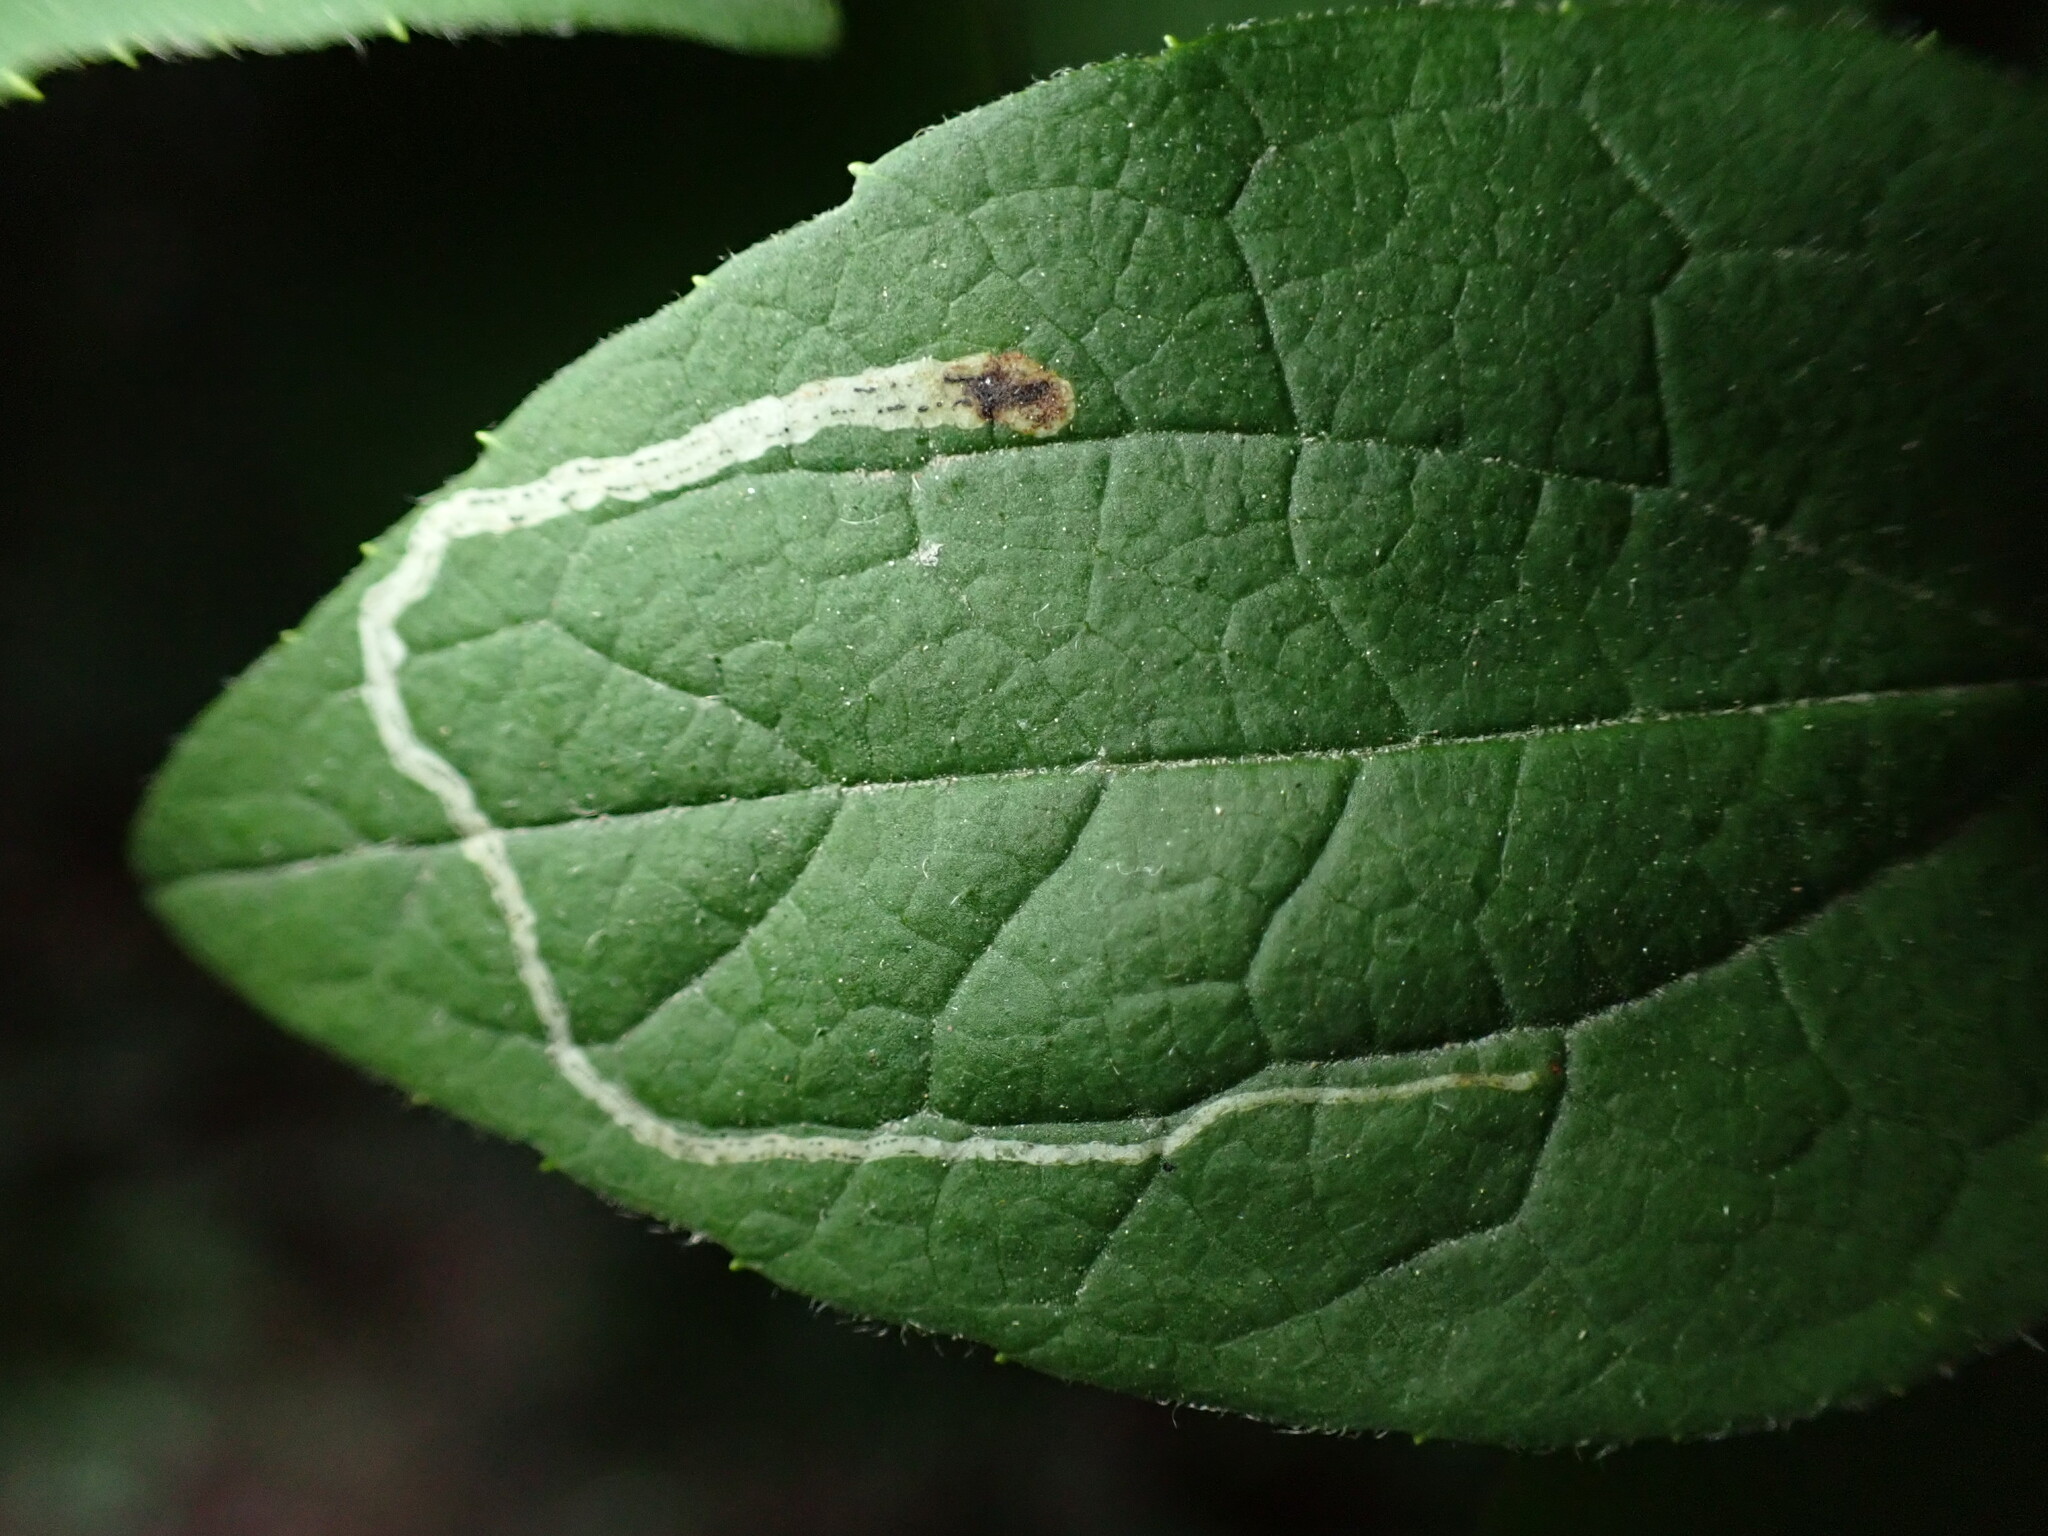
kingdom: Animalia
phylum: Arthropoda
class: Insecta
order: Diptera
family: Agromyzidae
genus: Liriomyza
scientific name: Liriomyza philadelphivora
